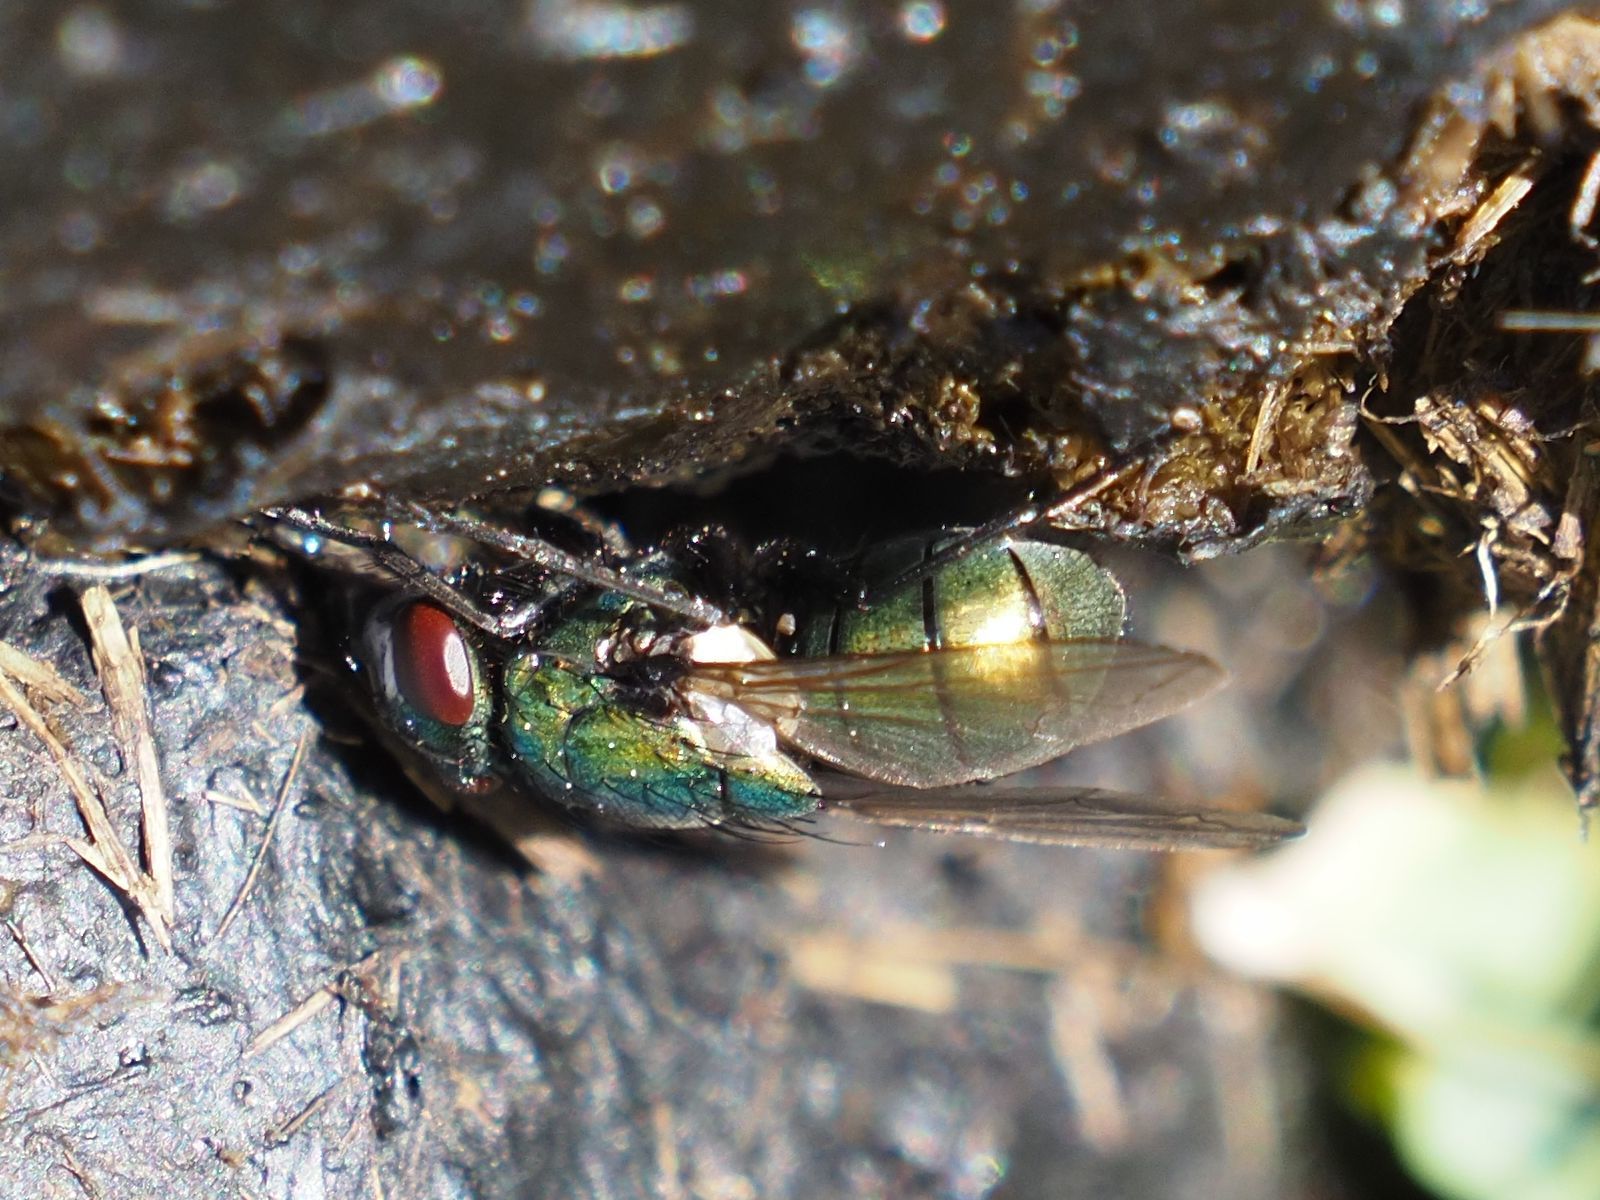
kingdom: Animalia
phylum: Arthropoda
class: Insecta
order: Diptera
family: Muscidae
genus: Neomyia
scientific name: Neomyia cornicina
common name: House fly
